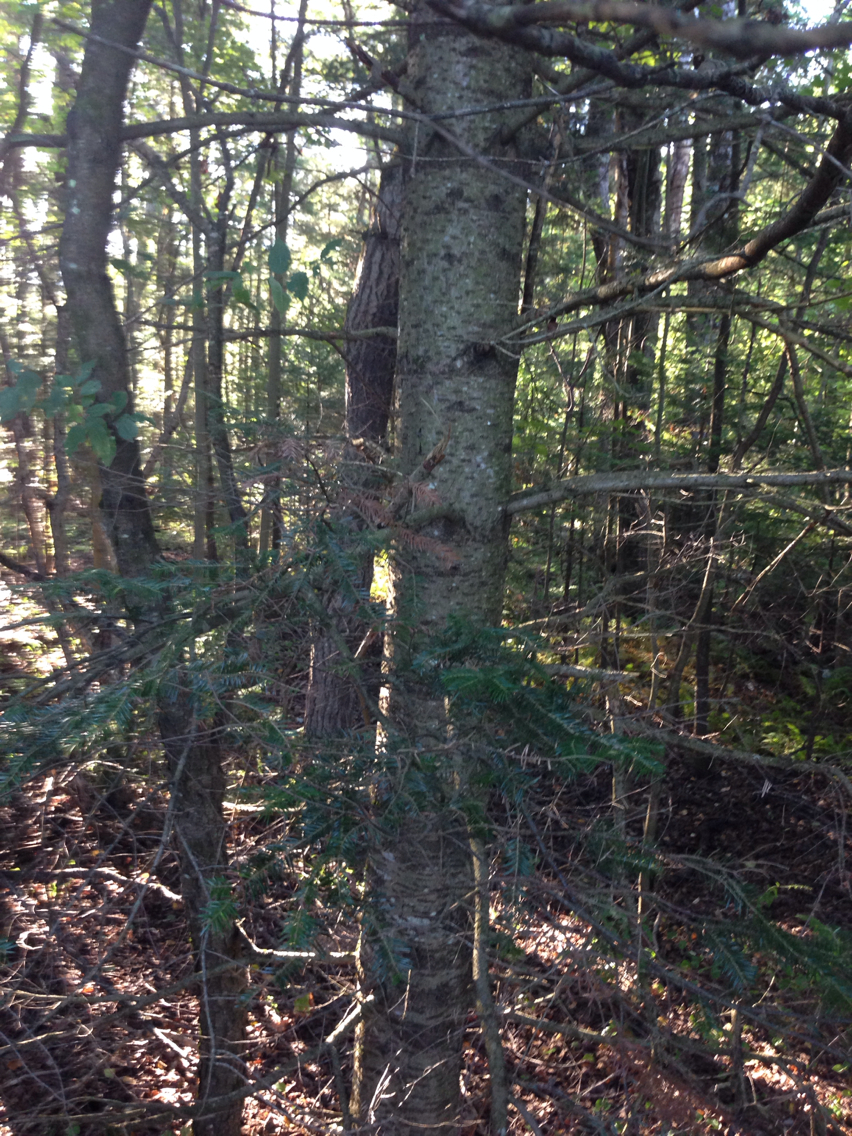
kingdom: Plantae
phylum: Tracheophyta
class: Pinopsida
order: Pinales
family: Pinaceae
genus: Abies
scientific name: Abies balsamea
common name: Balsam fir
